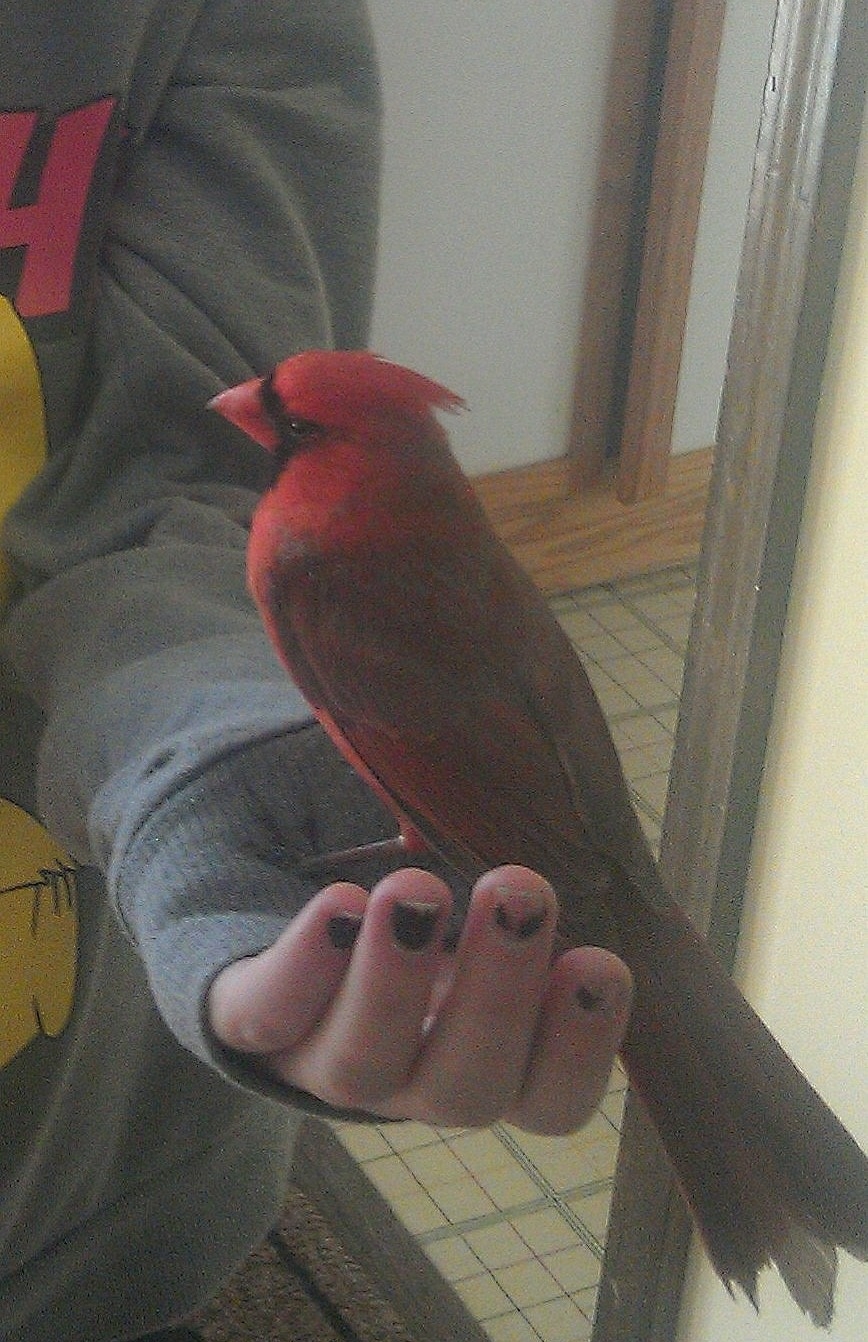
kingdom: Animalia
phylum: Chordata
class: Aves
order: Passeriformes
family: Cardinalidae
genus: Cardinalis
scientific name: Cardinalis cardinalis
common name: Northern cardinal
